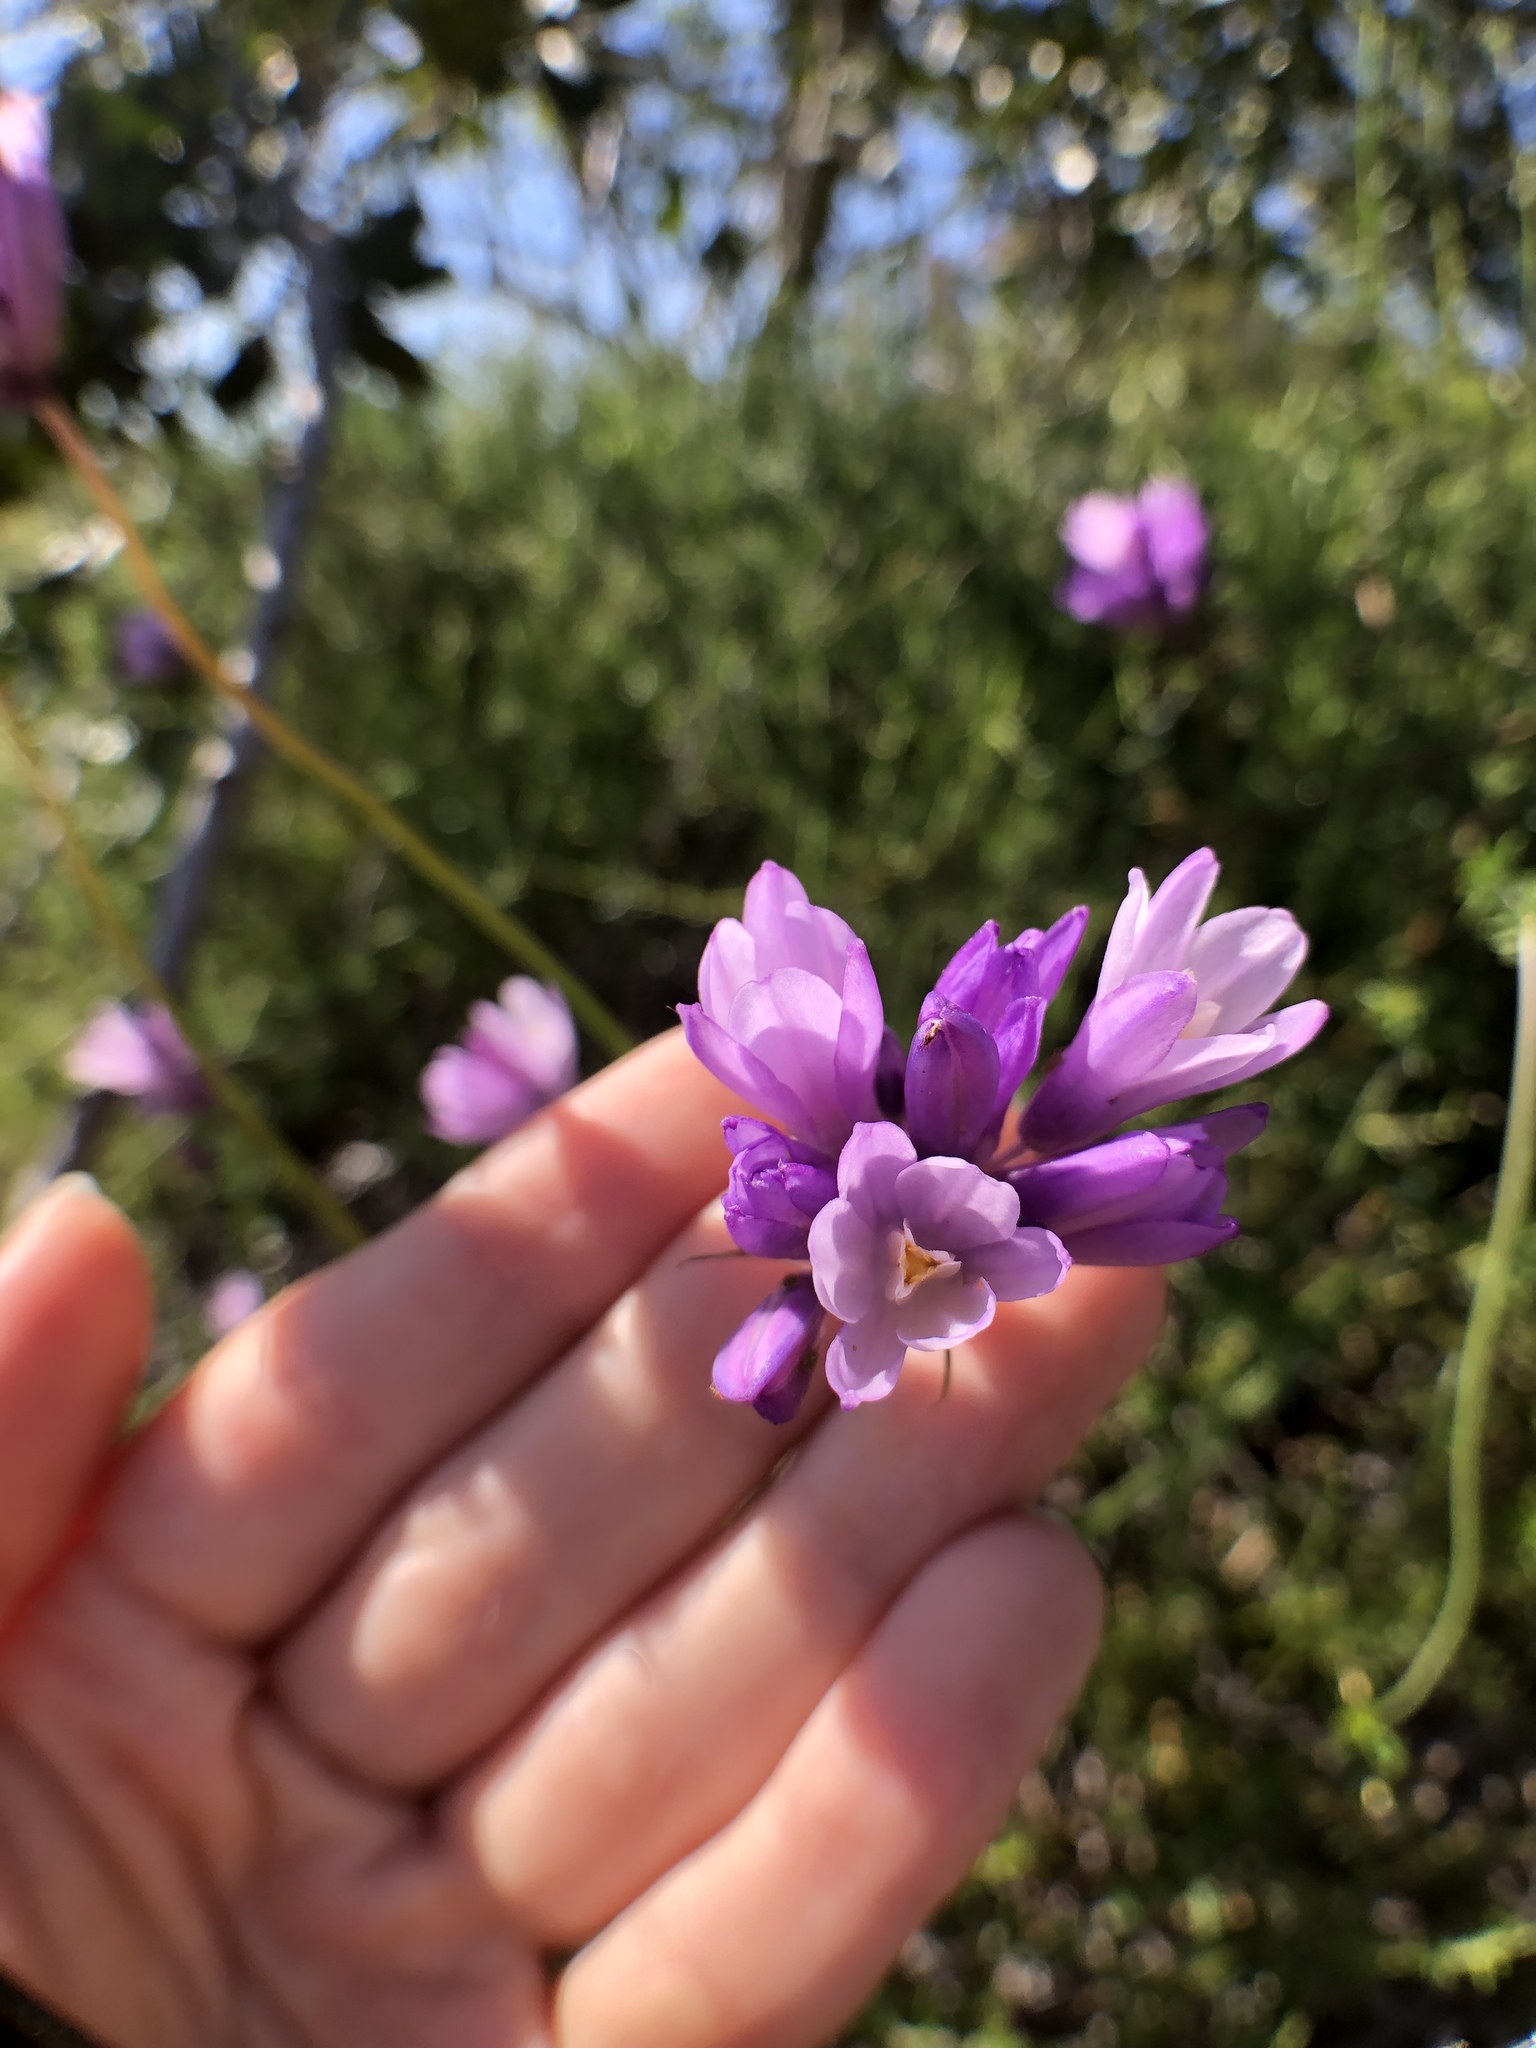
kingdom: Plantae
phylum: Tracheophyta
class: Liliopsida
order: Asparagales
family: Asparagaceae
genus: Dipterostemon
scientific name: Dipterostemon capitatus
